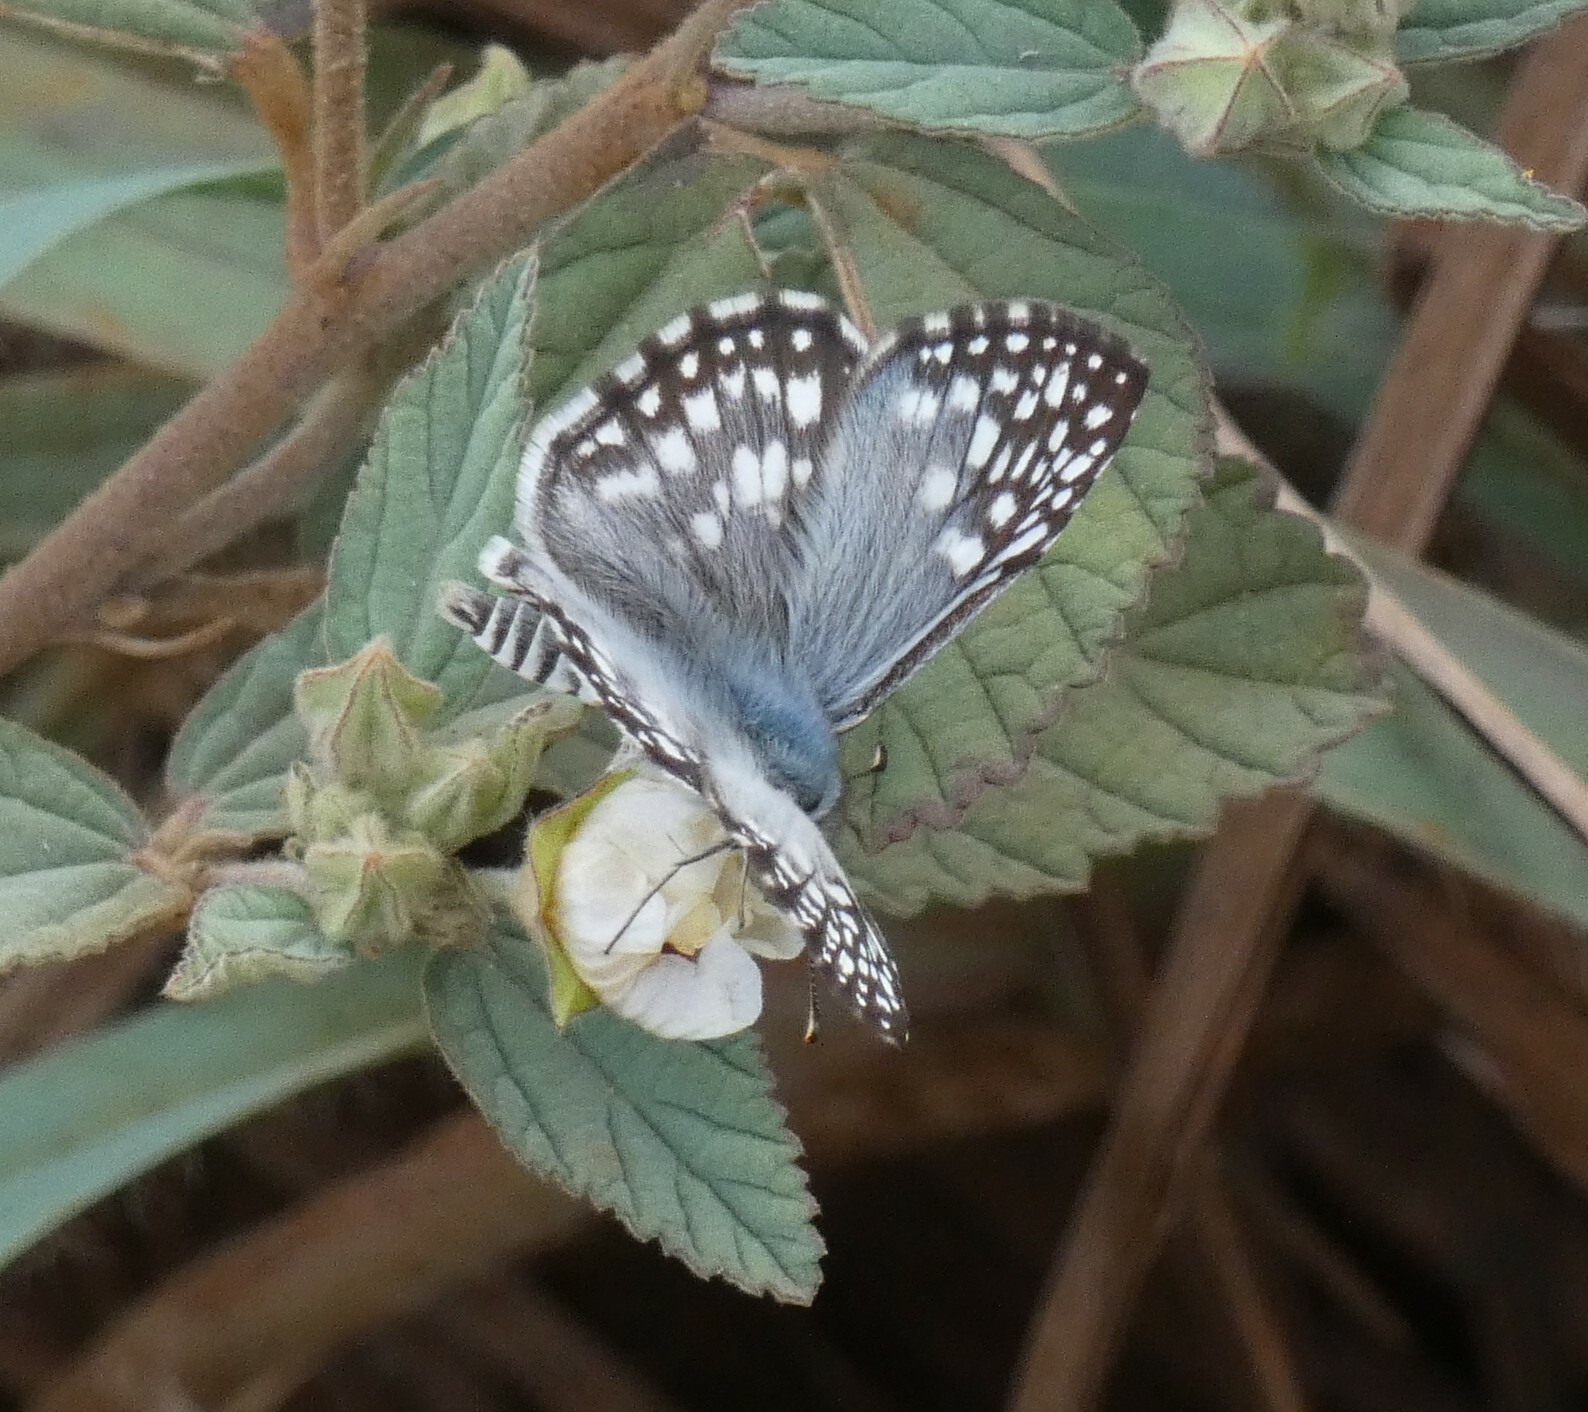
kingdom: Animalia
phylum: Arthropoda
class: Insecta
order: Lepidoptera
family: Hesperiidae
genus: Pyrgus
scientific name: Pyrgus oileus
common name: Tropical checkered-skipper
